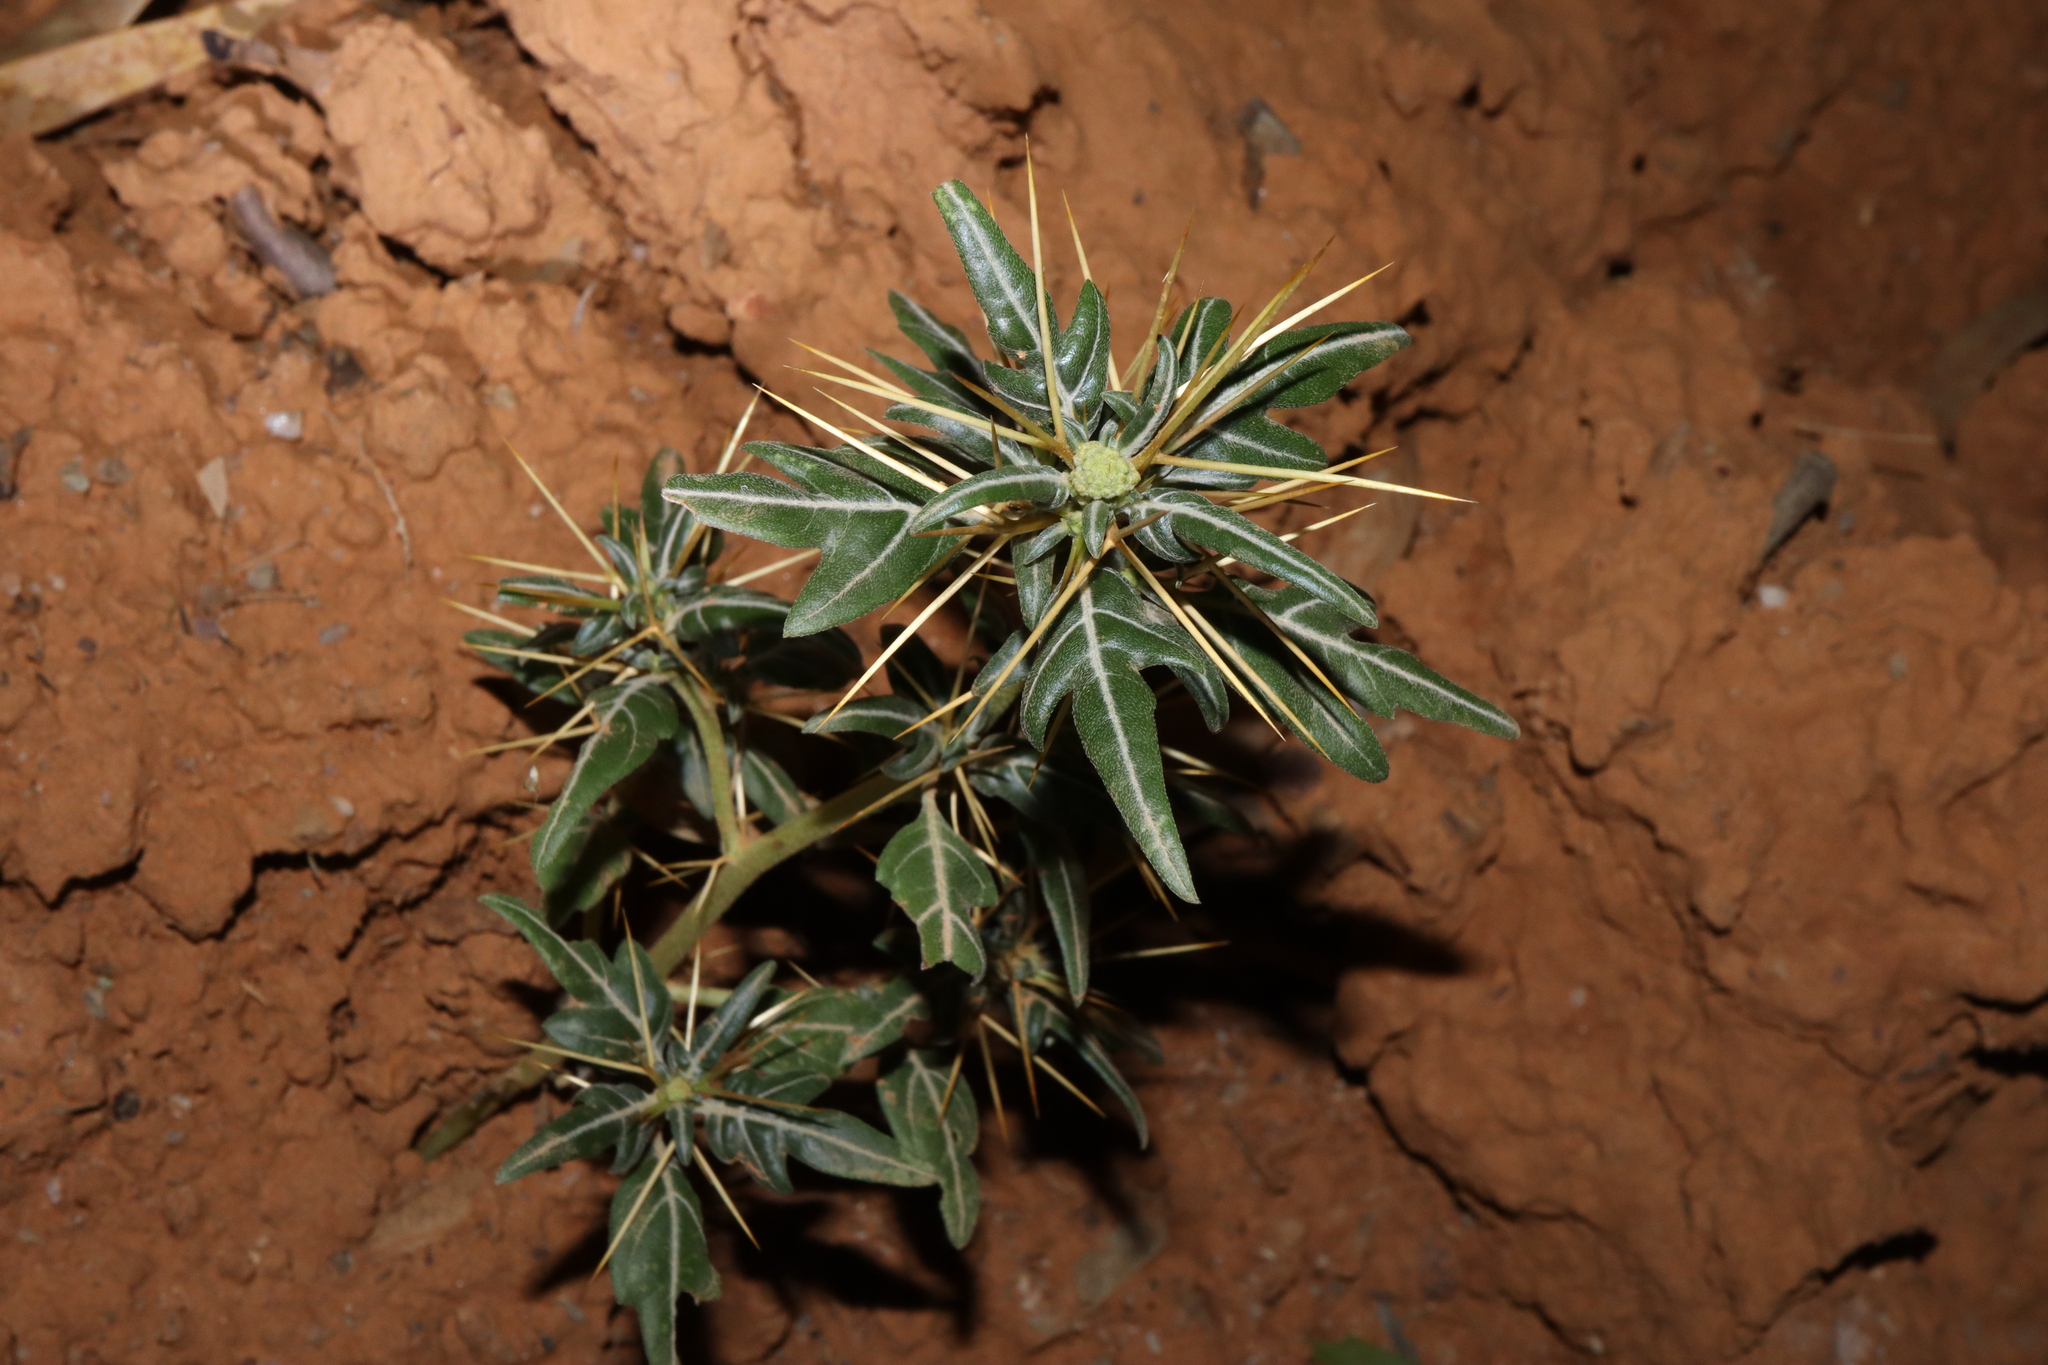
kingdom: Plantae
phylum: Tracheophyta
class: Magnoliopsida
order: Asterales
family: Asteraceae
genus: Xanthium
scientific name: Xanthium spinosum
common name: Spiny cocklebur
